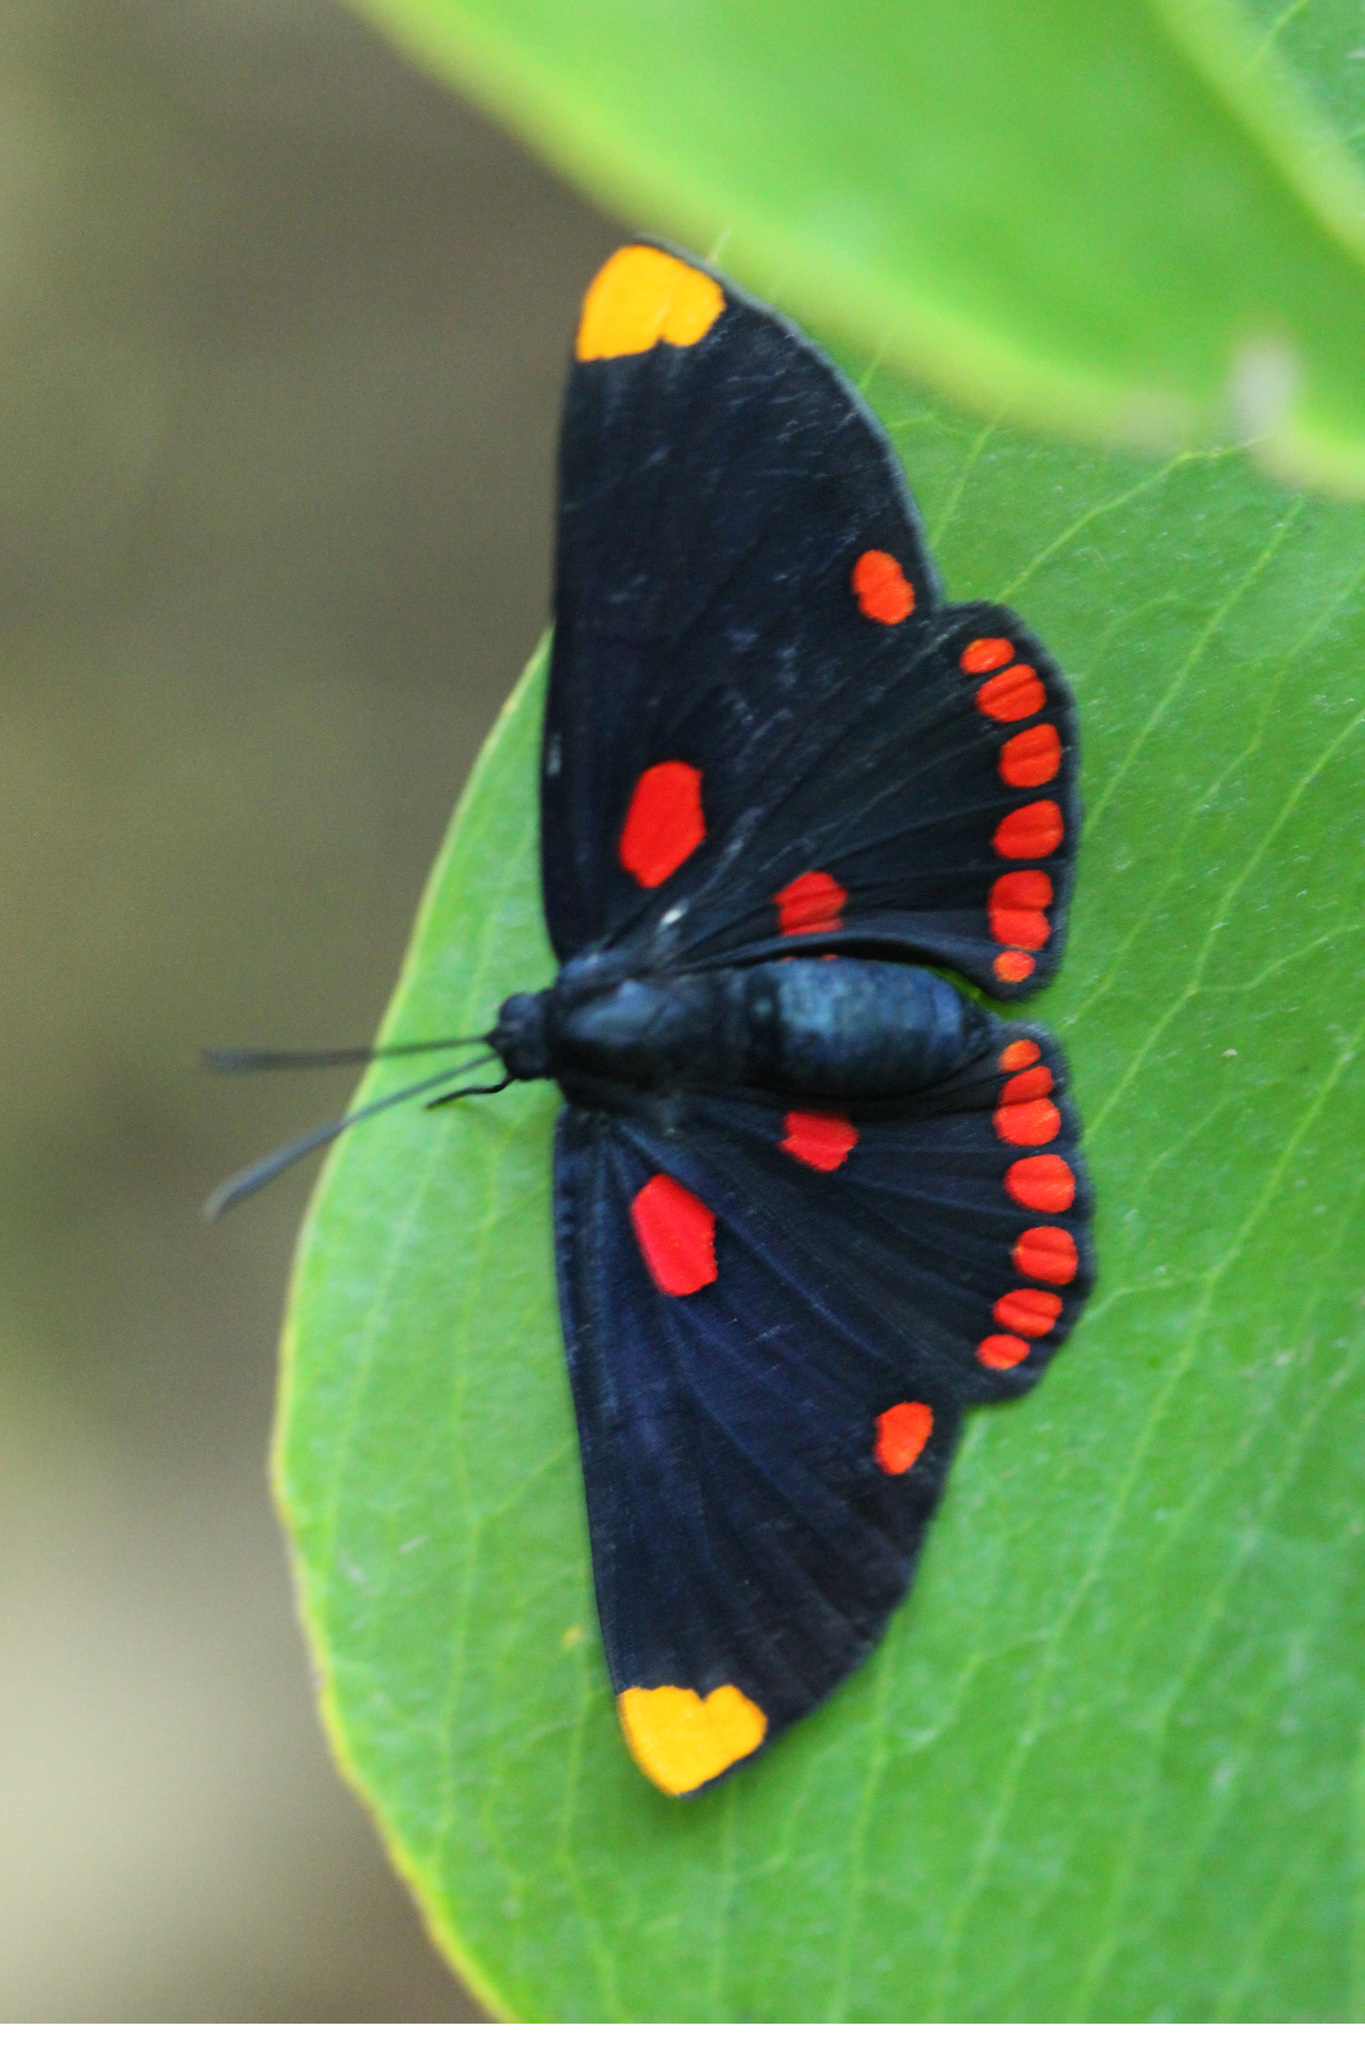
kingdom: Animalia
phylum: Arthropoda
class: Insecta
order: Lepidoptera
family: Lycaenidae
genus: Melanis
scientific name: Melanis pixe
